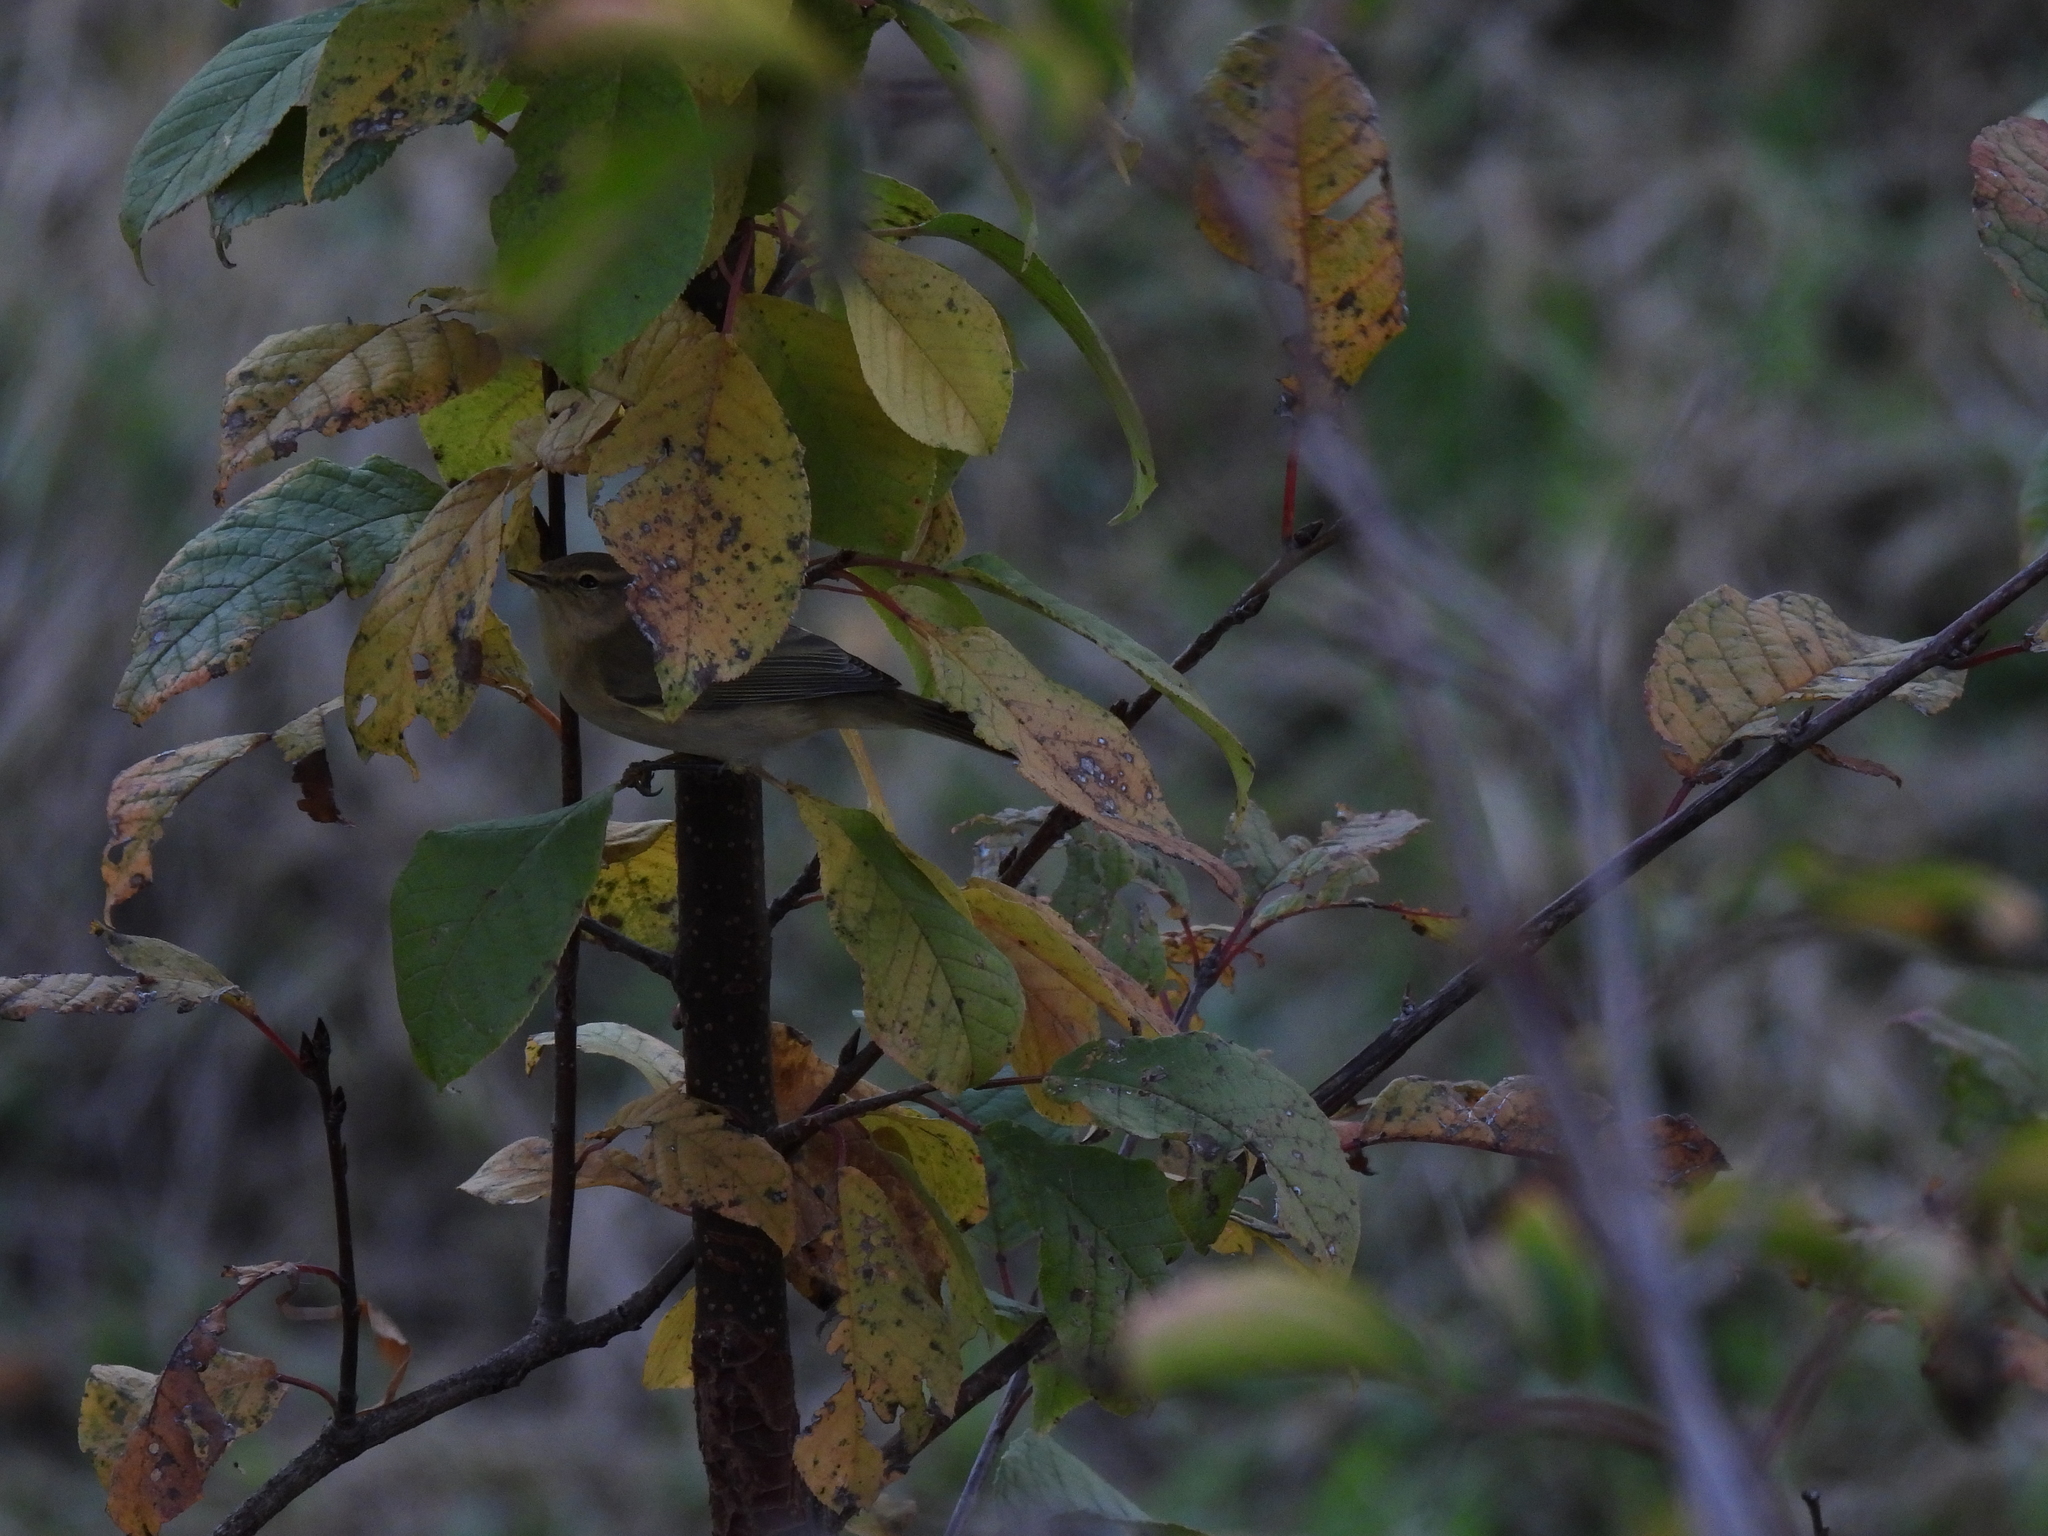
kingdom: Animalia
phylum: Chordata
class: Aves
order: Passeriformes
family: Phylloscopidae
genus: Phylloscopus
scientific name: Phylloscopus collybita
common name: Common chiffchaff
